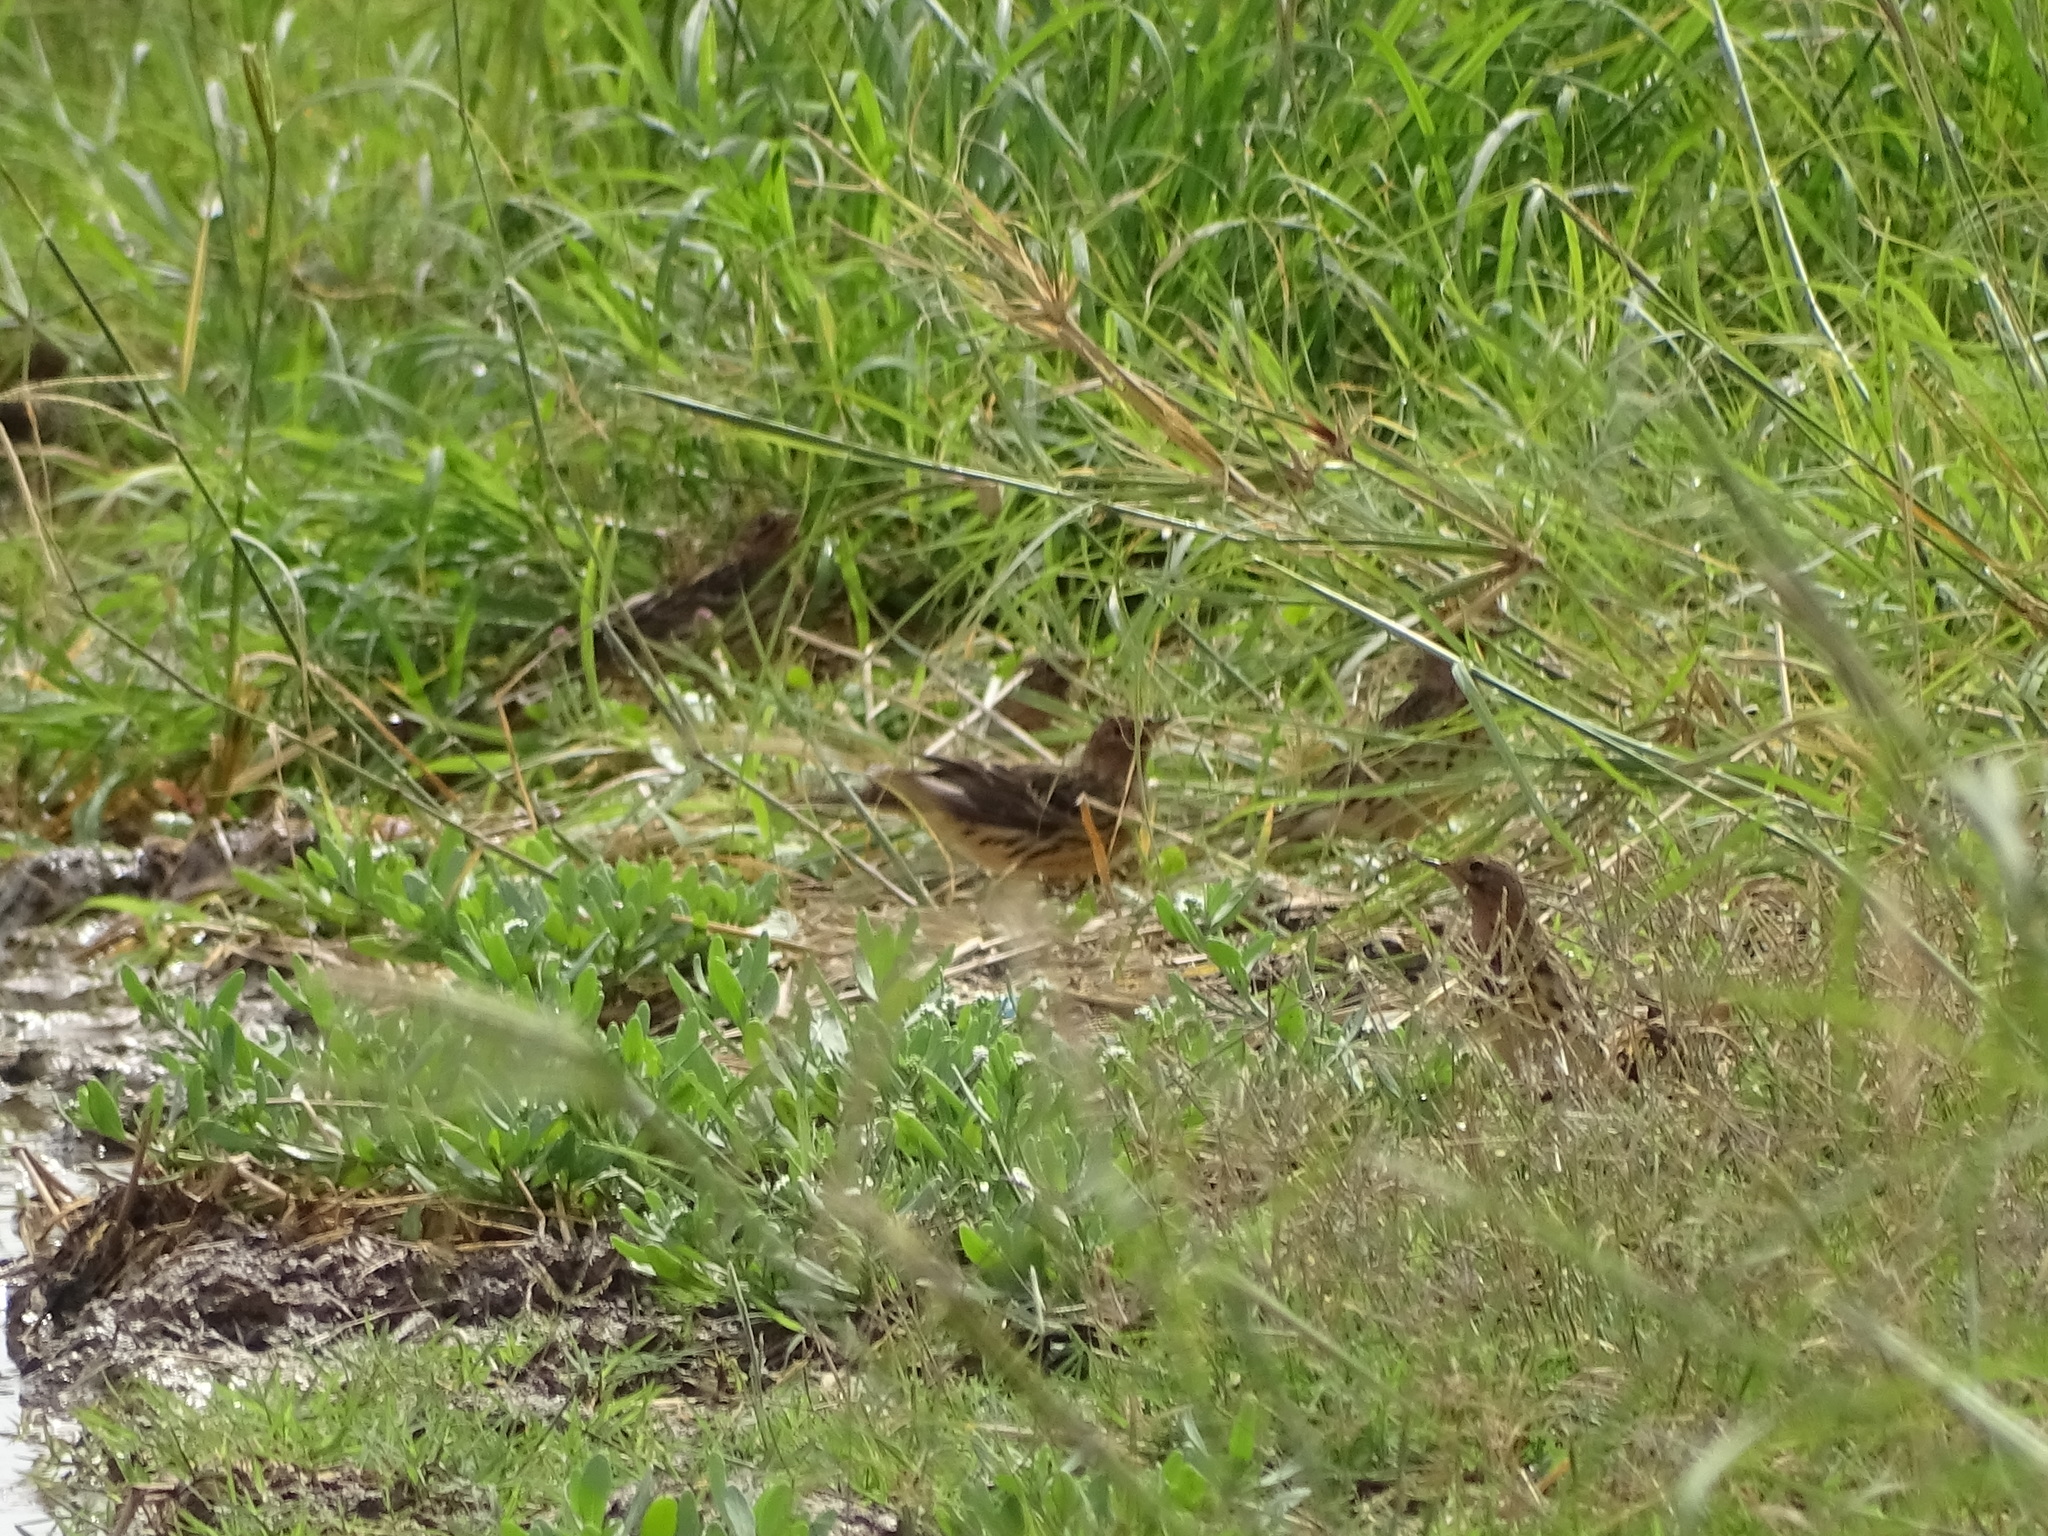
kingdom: Animalia
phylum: Chordata
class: Aves
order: Passeriformes
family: Motacillidae
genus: Anthus
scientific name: Anthus cervinus
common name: Red-throated pipit
